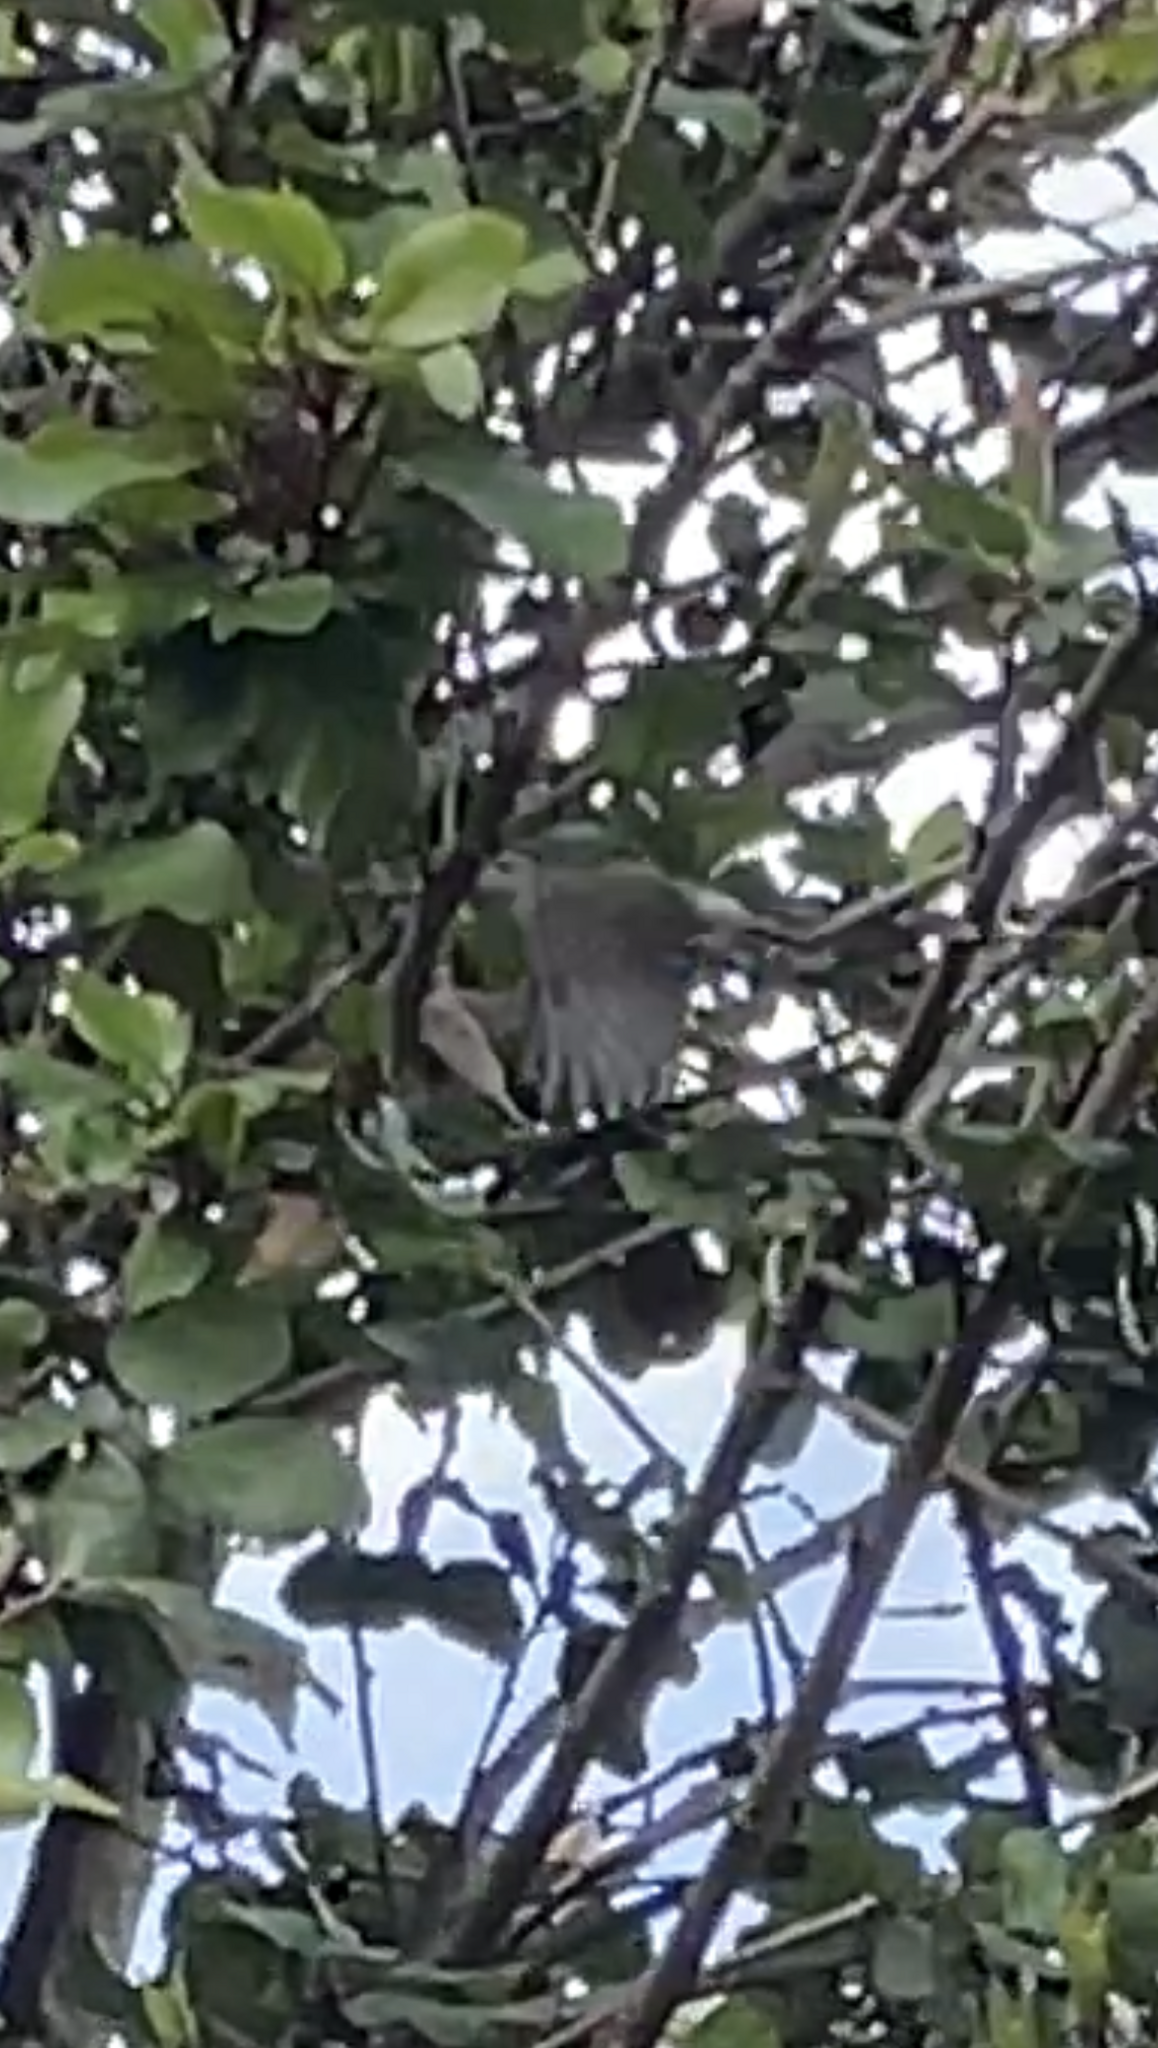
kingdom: Animalia
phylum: Chordata
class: Aves
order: Passeriformes
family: Acanthizidae
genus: Acanthiza
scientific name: Acanthiza pusilla
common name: Brown thornbill
